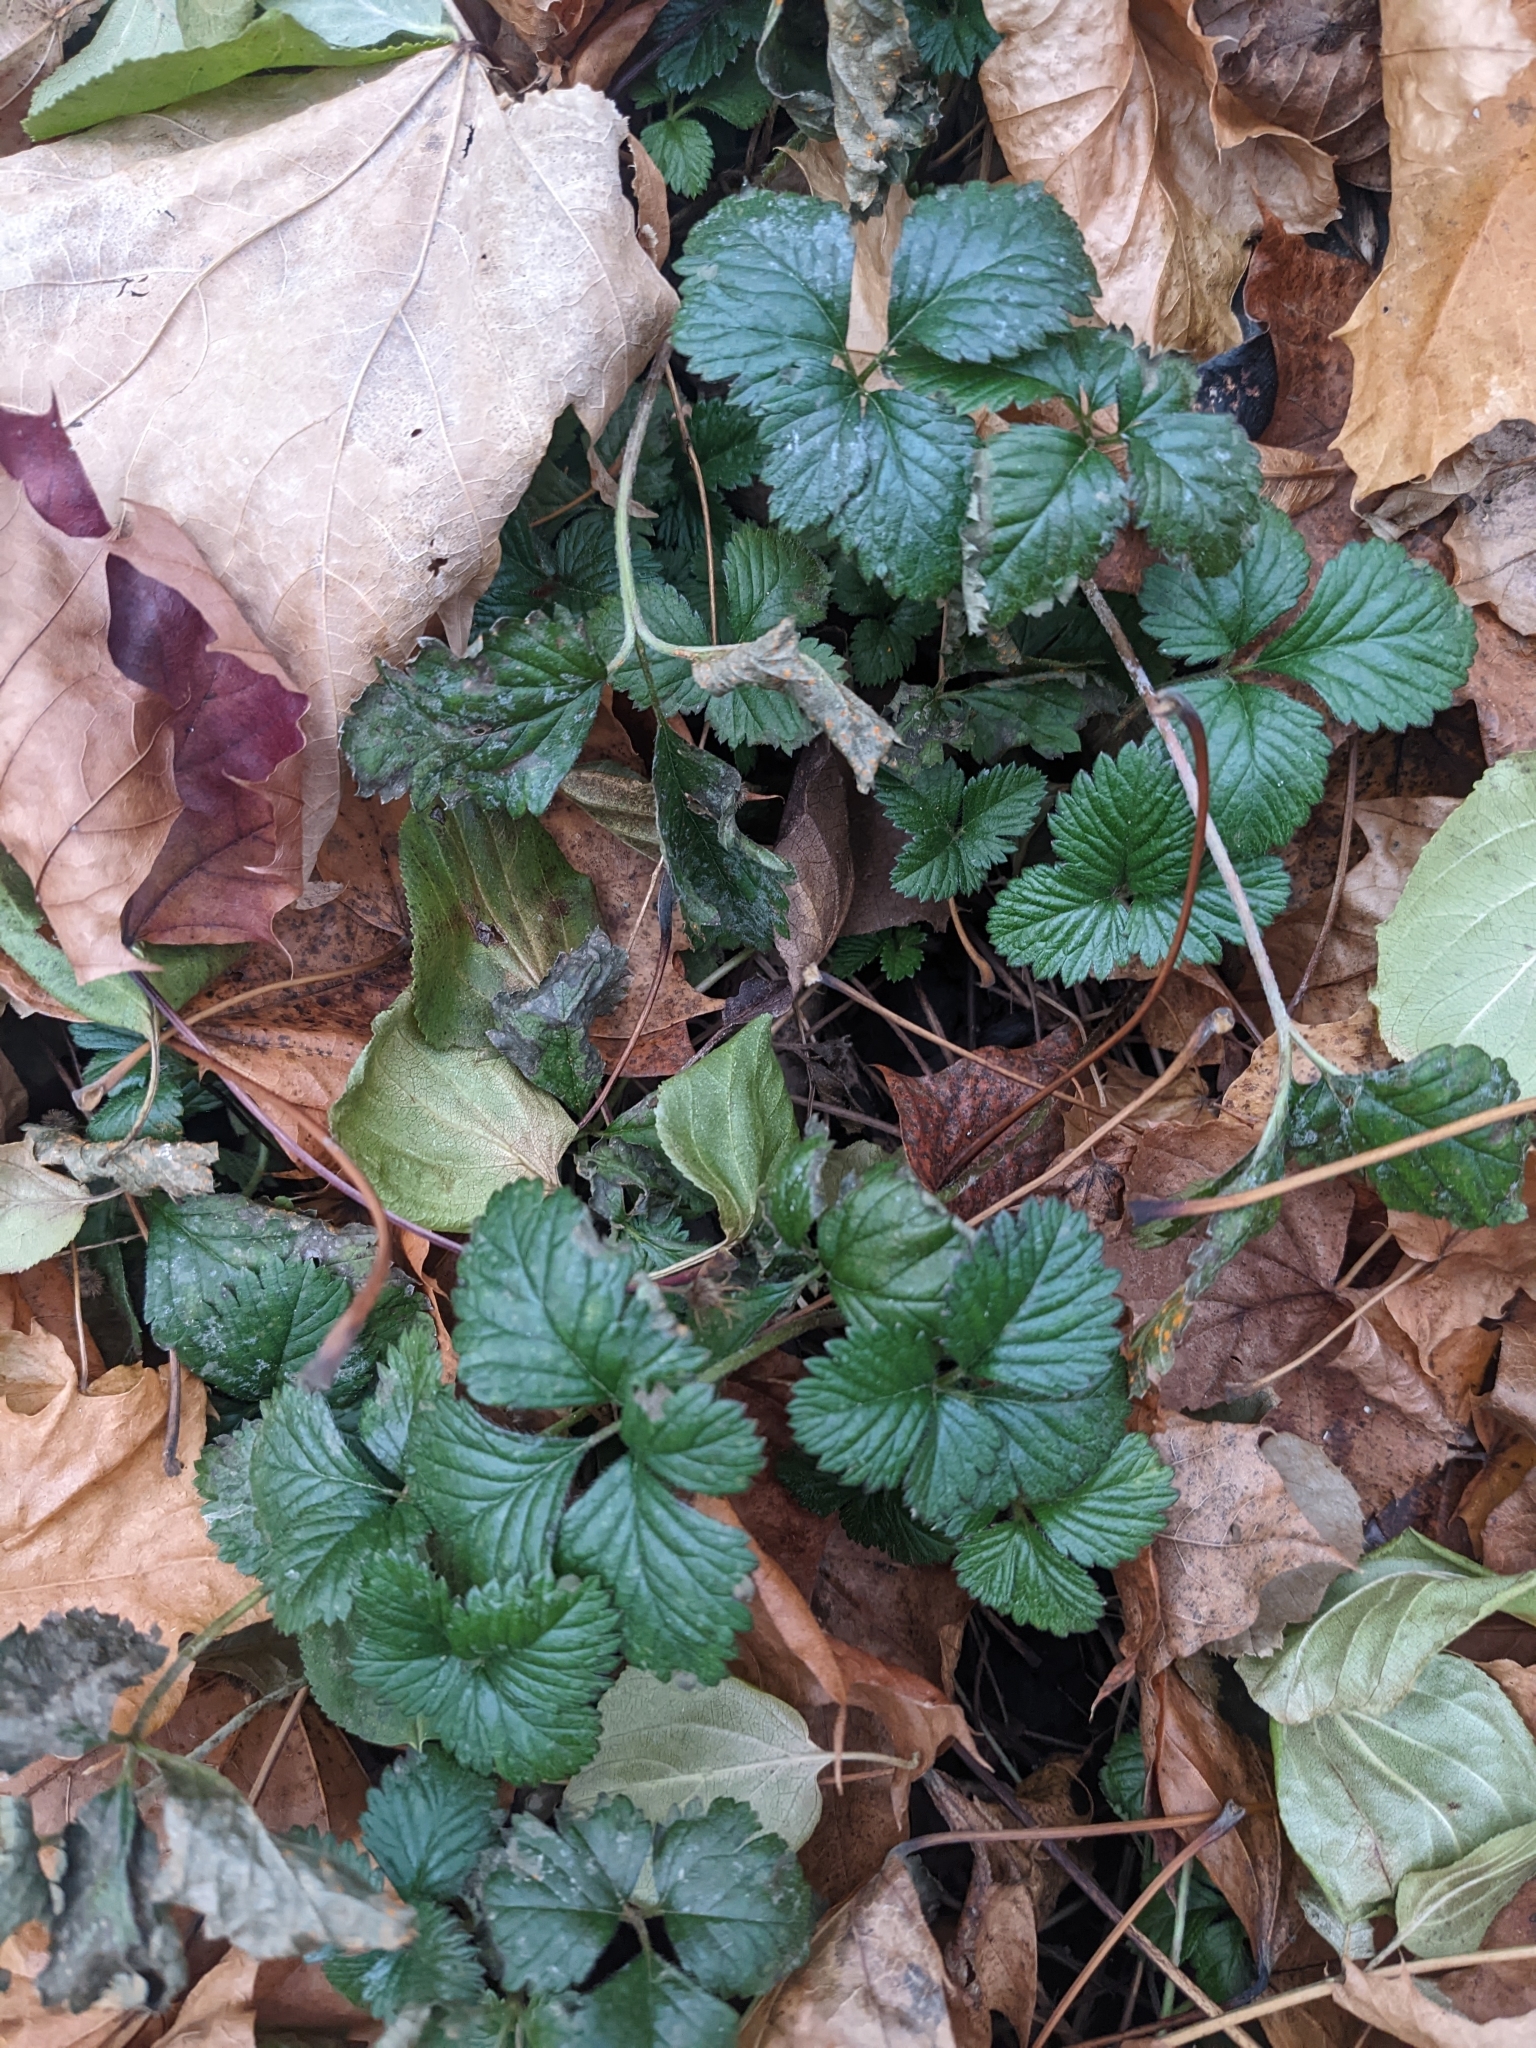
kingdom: Plantae
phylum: Tracheophyta
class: Magnoliopsida
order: Rosales
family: Rosaceae
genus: Potentilla
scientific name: Potentilla indica
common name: Yellow-flowered strawberry
